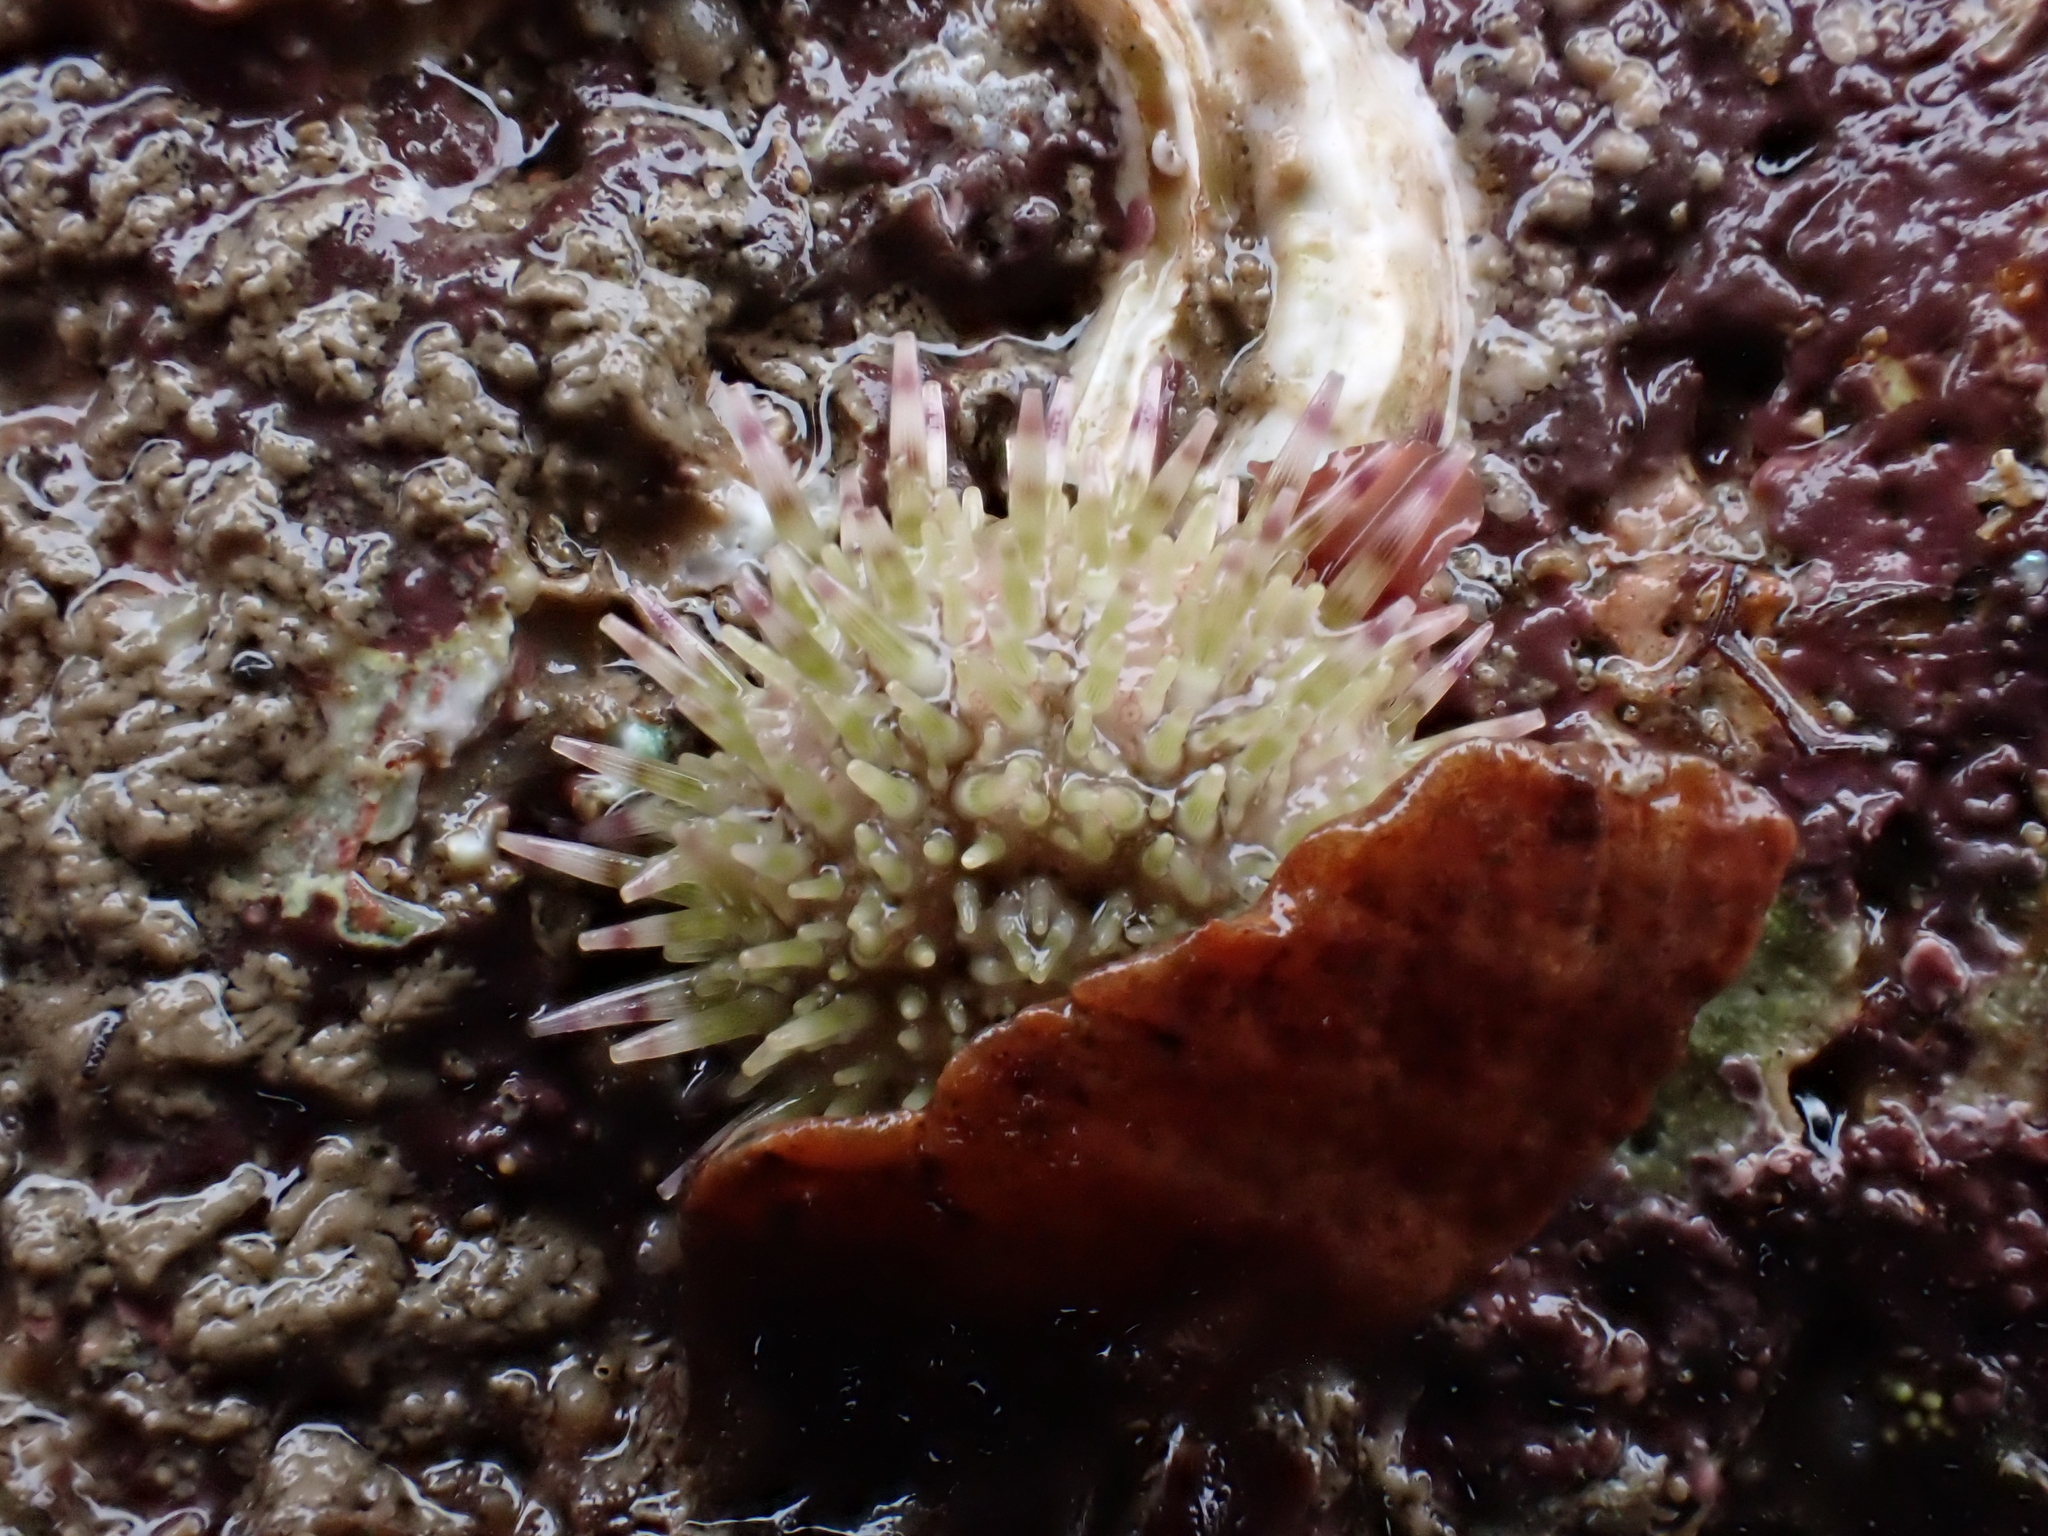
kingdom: Animalia
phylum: Echinodermata
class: Echinoidea
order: Camarodonta
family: Parechinidae
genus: Psammechinus
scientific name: Psammechinus miliaris
